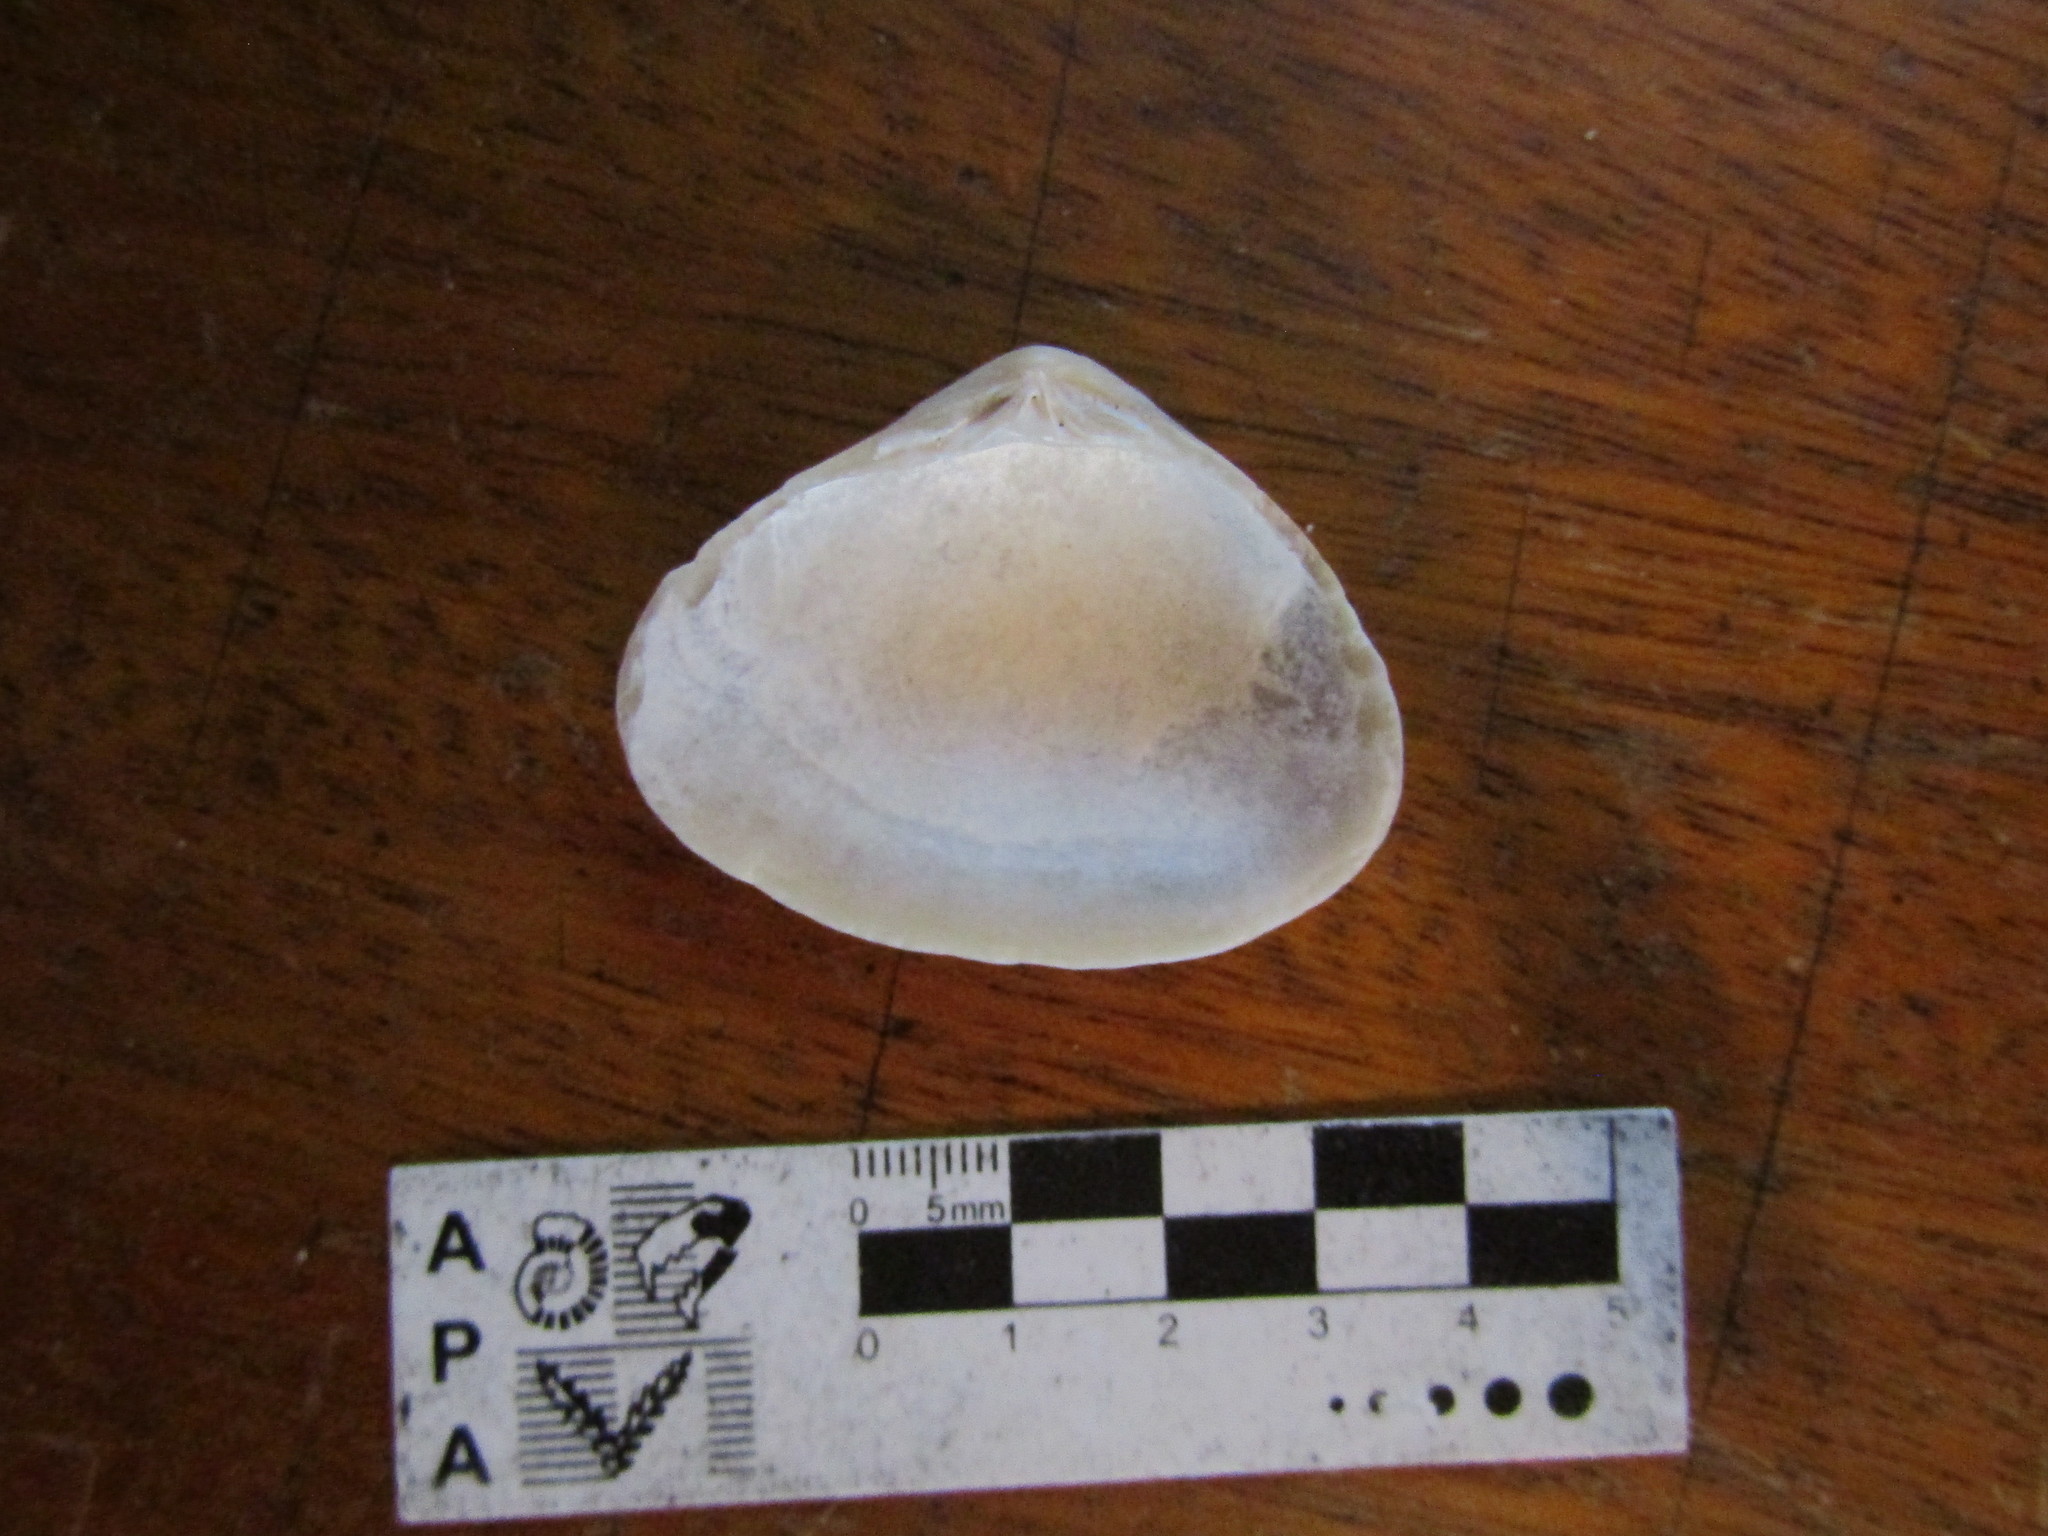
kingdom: Animalia
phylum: Mollusca
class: Bivalvia
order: Venerida
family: Veneridae
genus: Tivela
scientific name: Tivela dentaria
